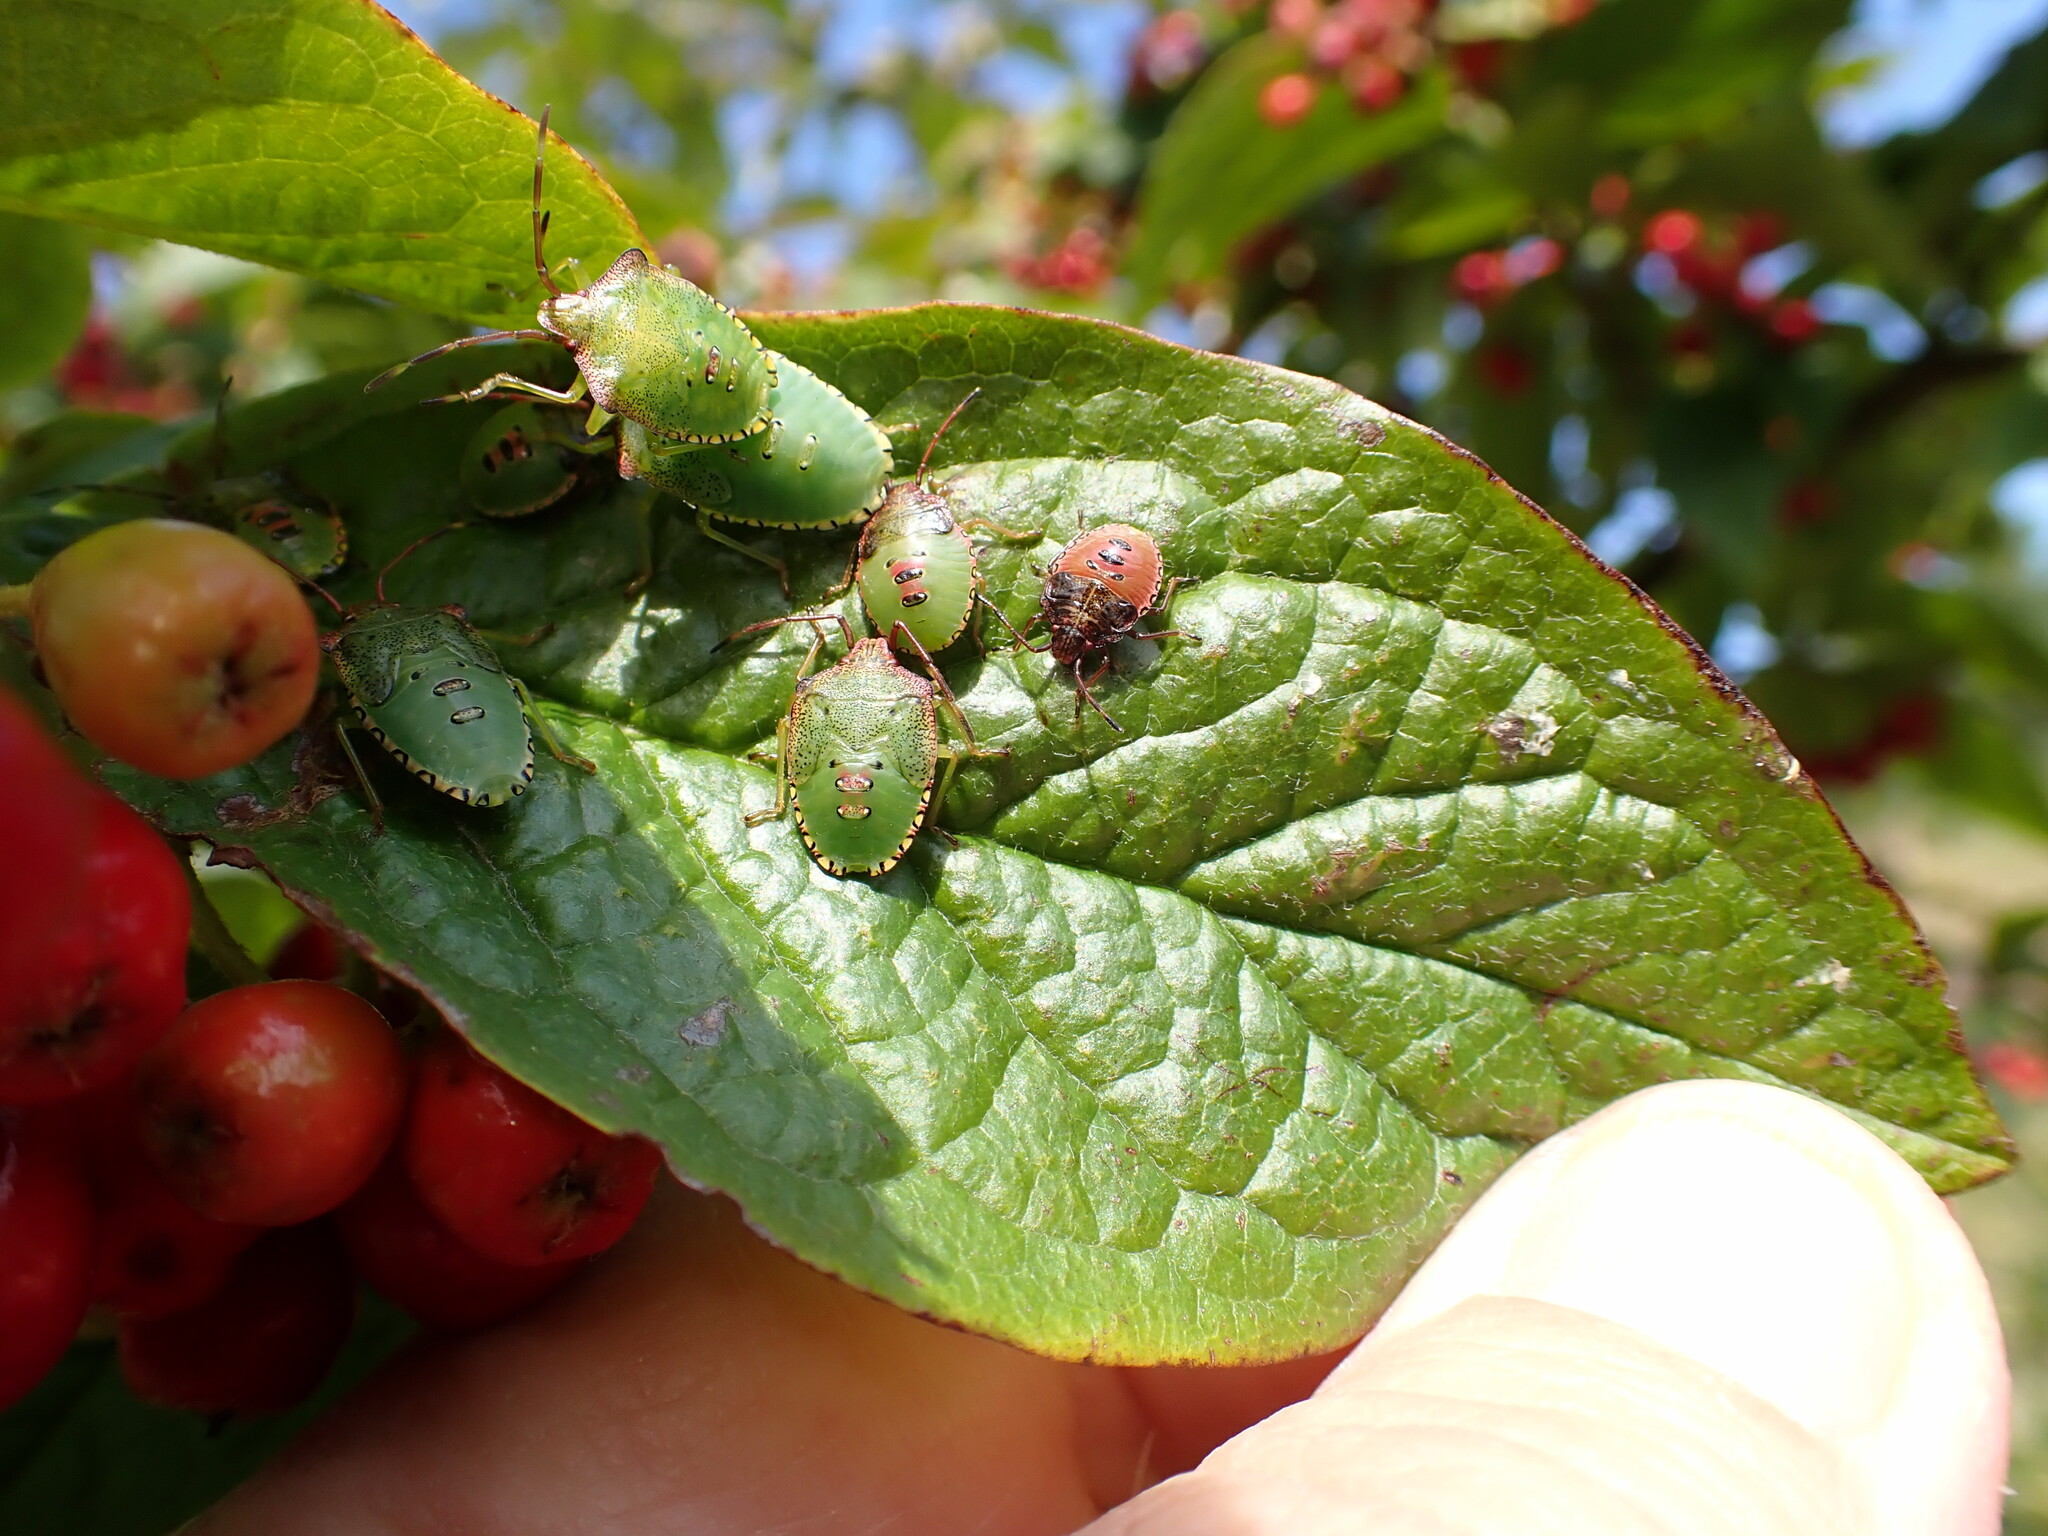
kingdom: Animalia
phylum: Arthropoda
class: Insecta
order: Hemiptera
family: Acanthosomatidae
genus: Acanthosoma
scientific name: Acanthosoma haemorrhoidale
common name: Hawthorn shieldbug
